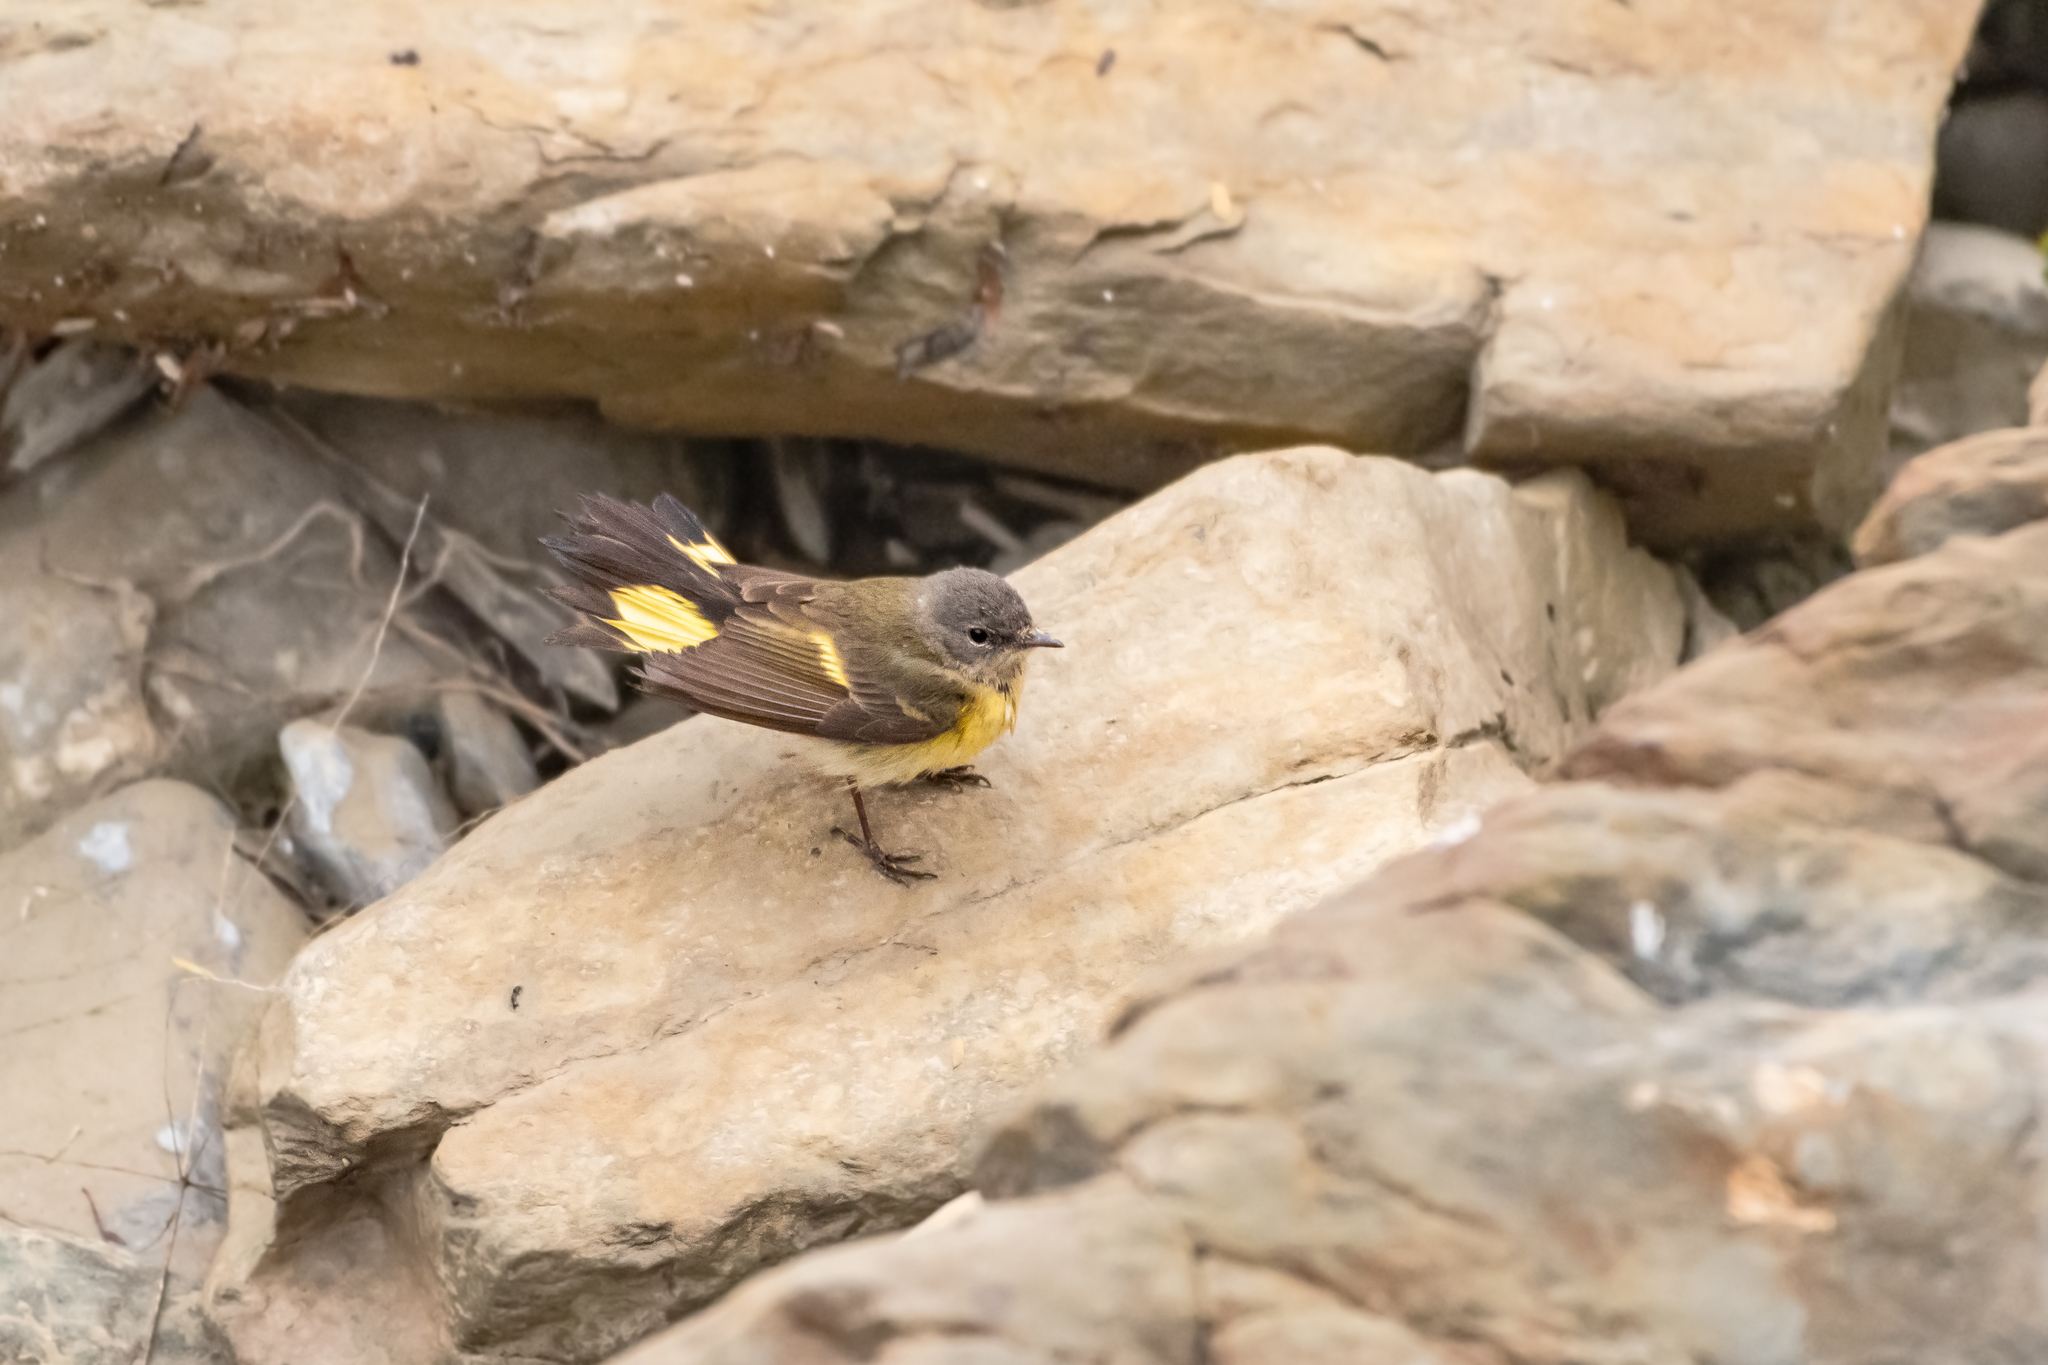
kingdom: Animalia
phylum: Chordata
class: Aves
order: Passeriformes
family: Parulidae
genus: Setophaga
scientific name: Setophaga ruticilla
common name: American redstart
